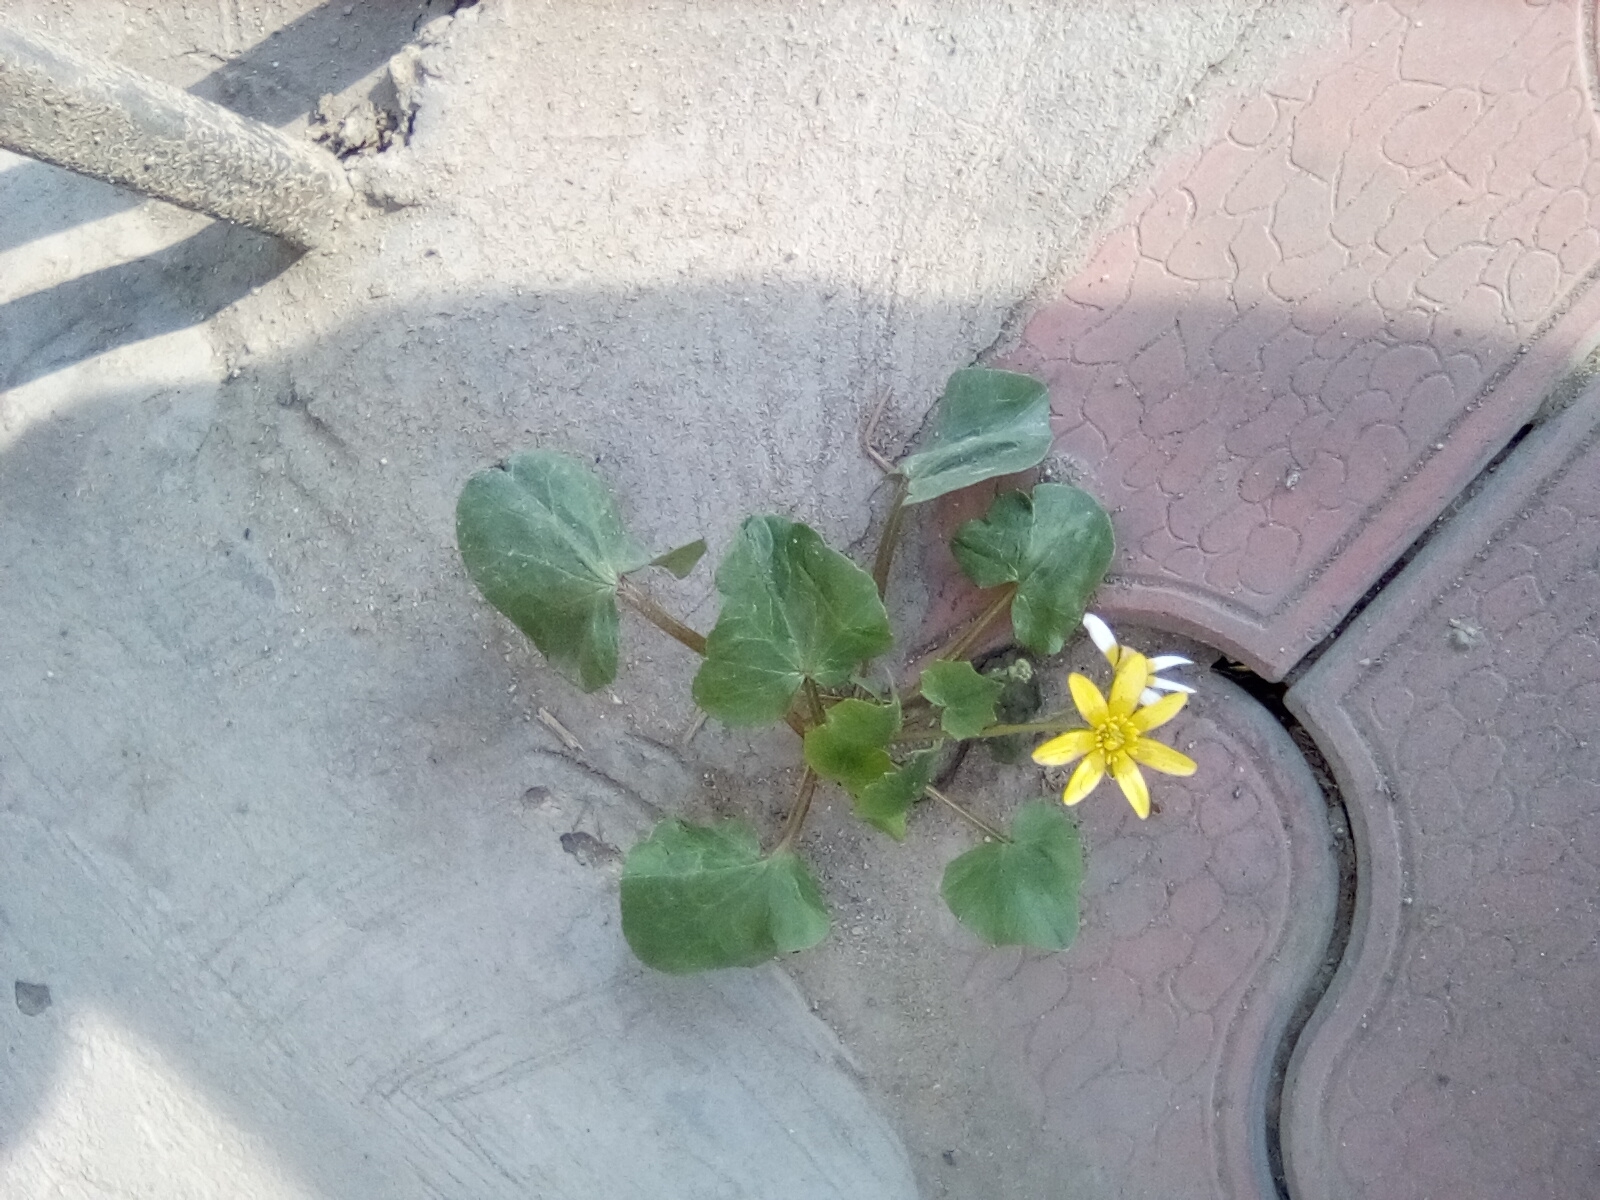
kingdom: Plantae
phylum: Tracheophyta
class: Magnoliopsida
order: Ranunculales
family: Ranunculaceae
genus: Ficaria
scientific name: Ficaria verna
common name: Lesser celandine
